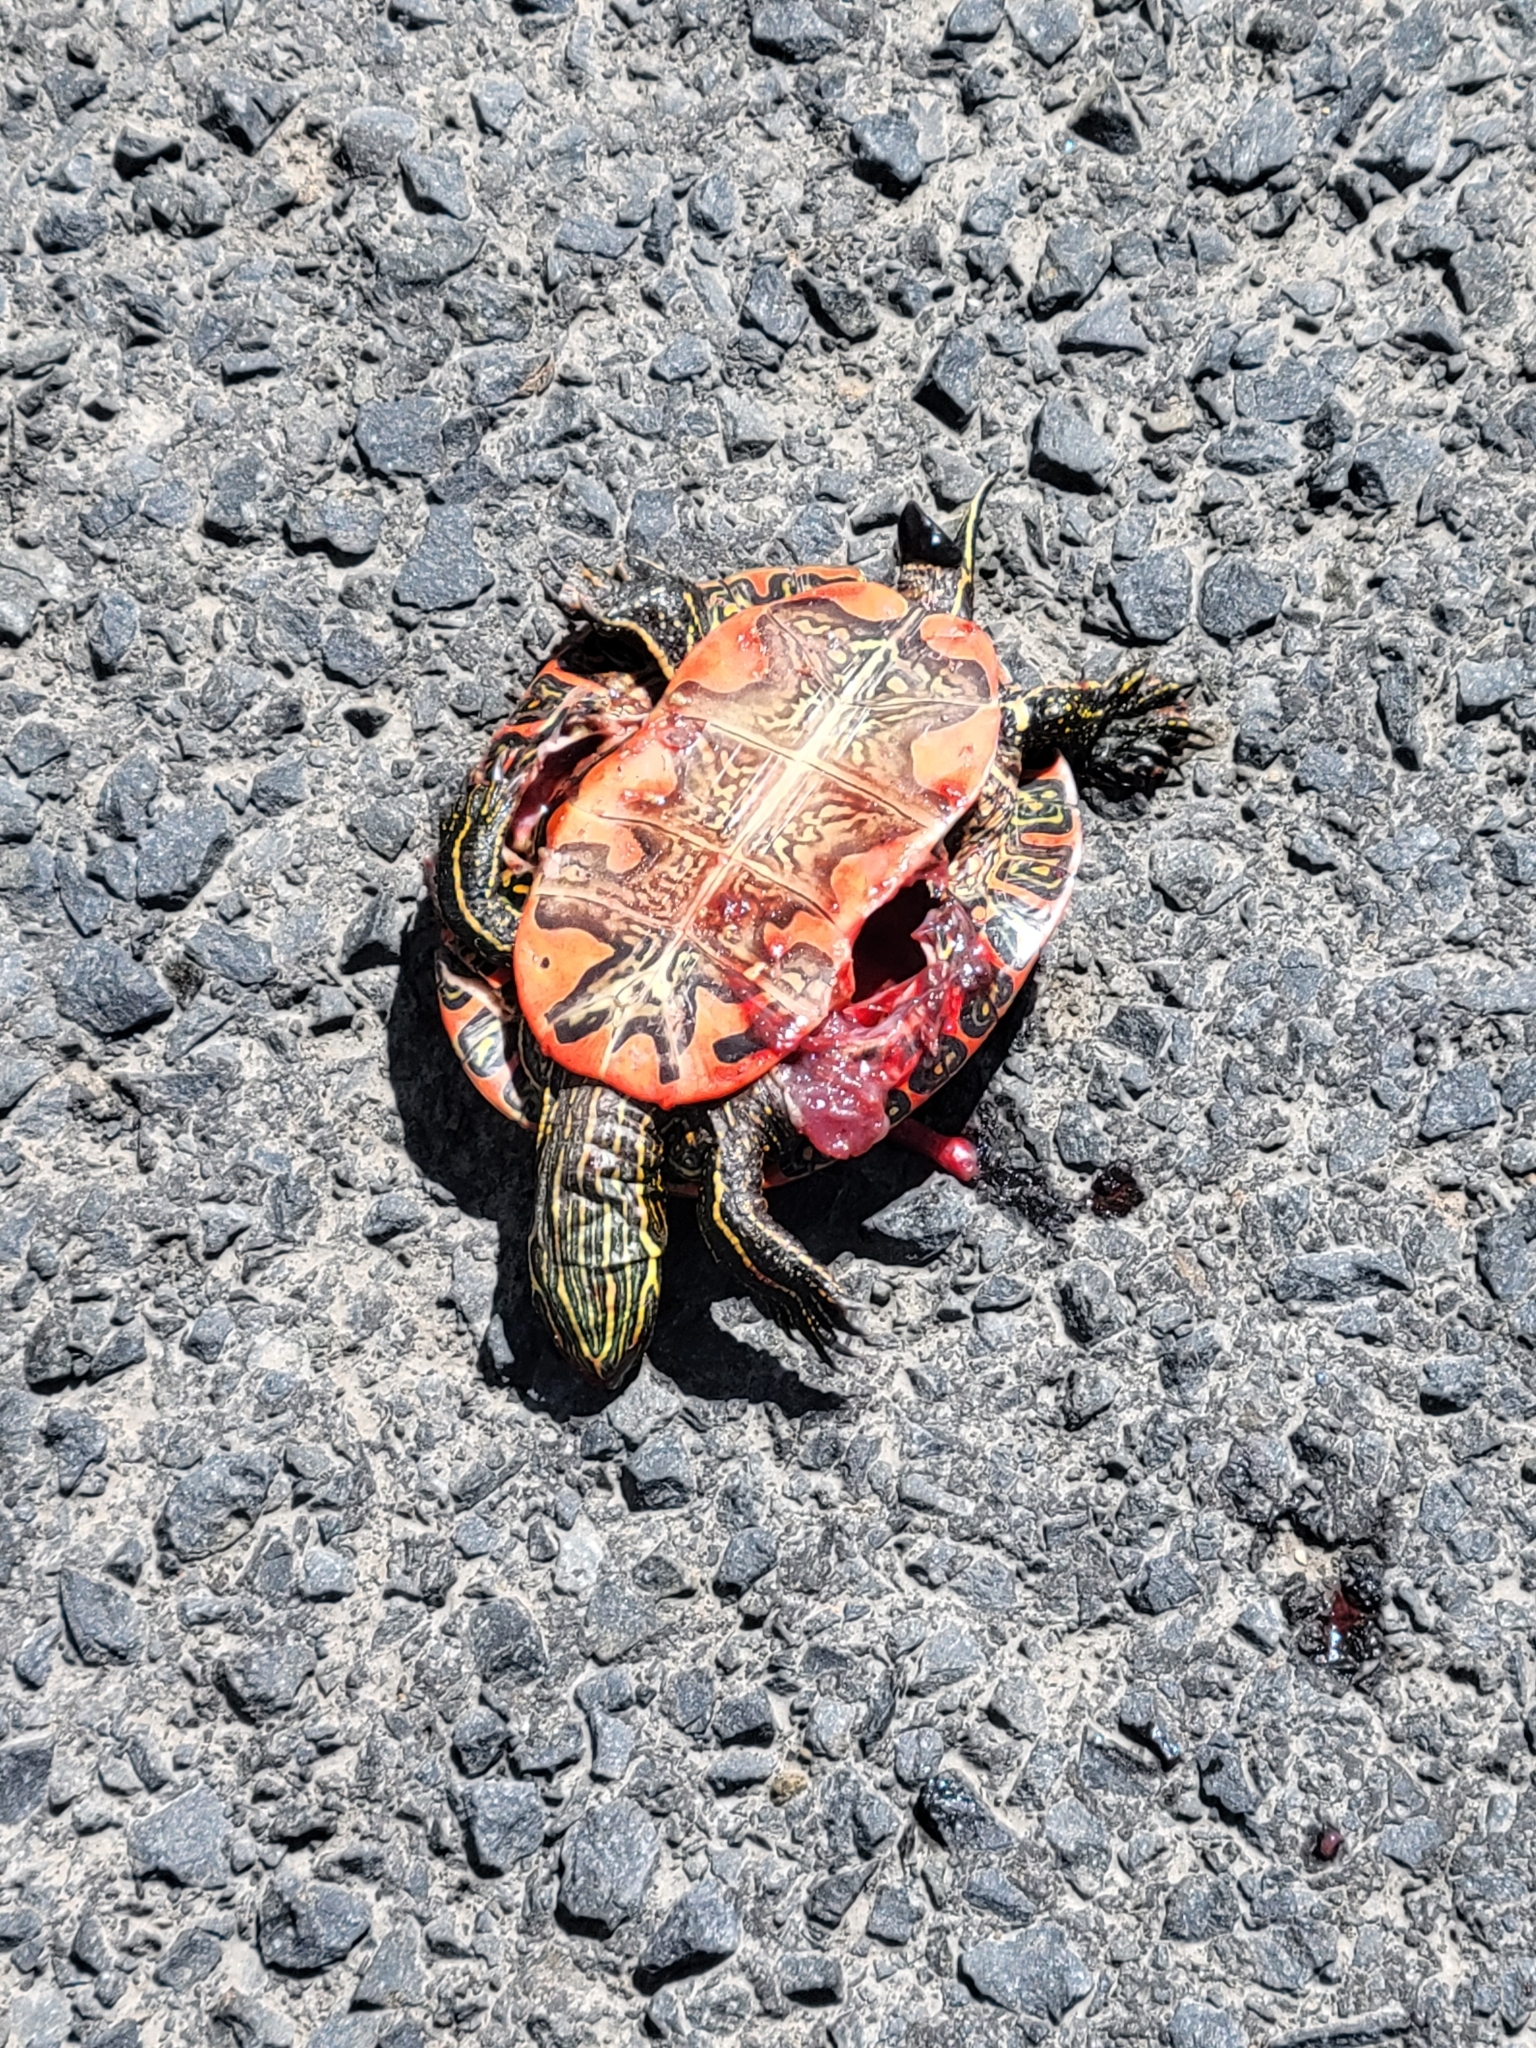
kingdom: Animalia
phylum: Chordata
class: Testudines
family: Emydidae
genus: Chrysemys
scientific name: Chrysemys picta
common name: Painted turtle
